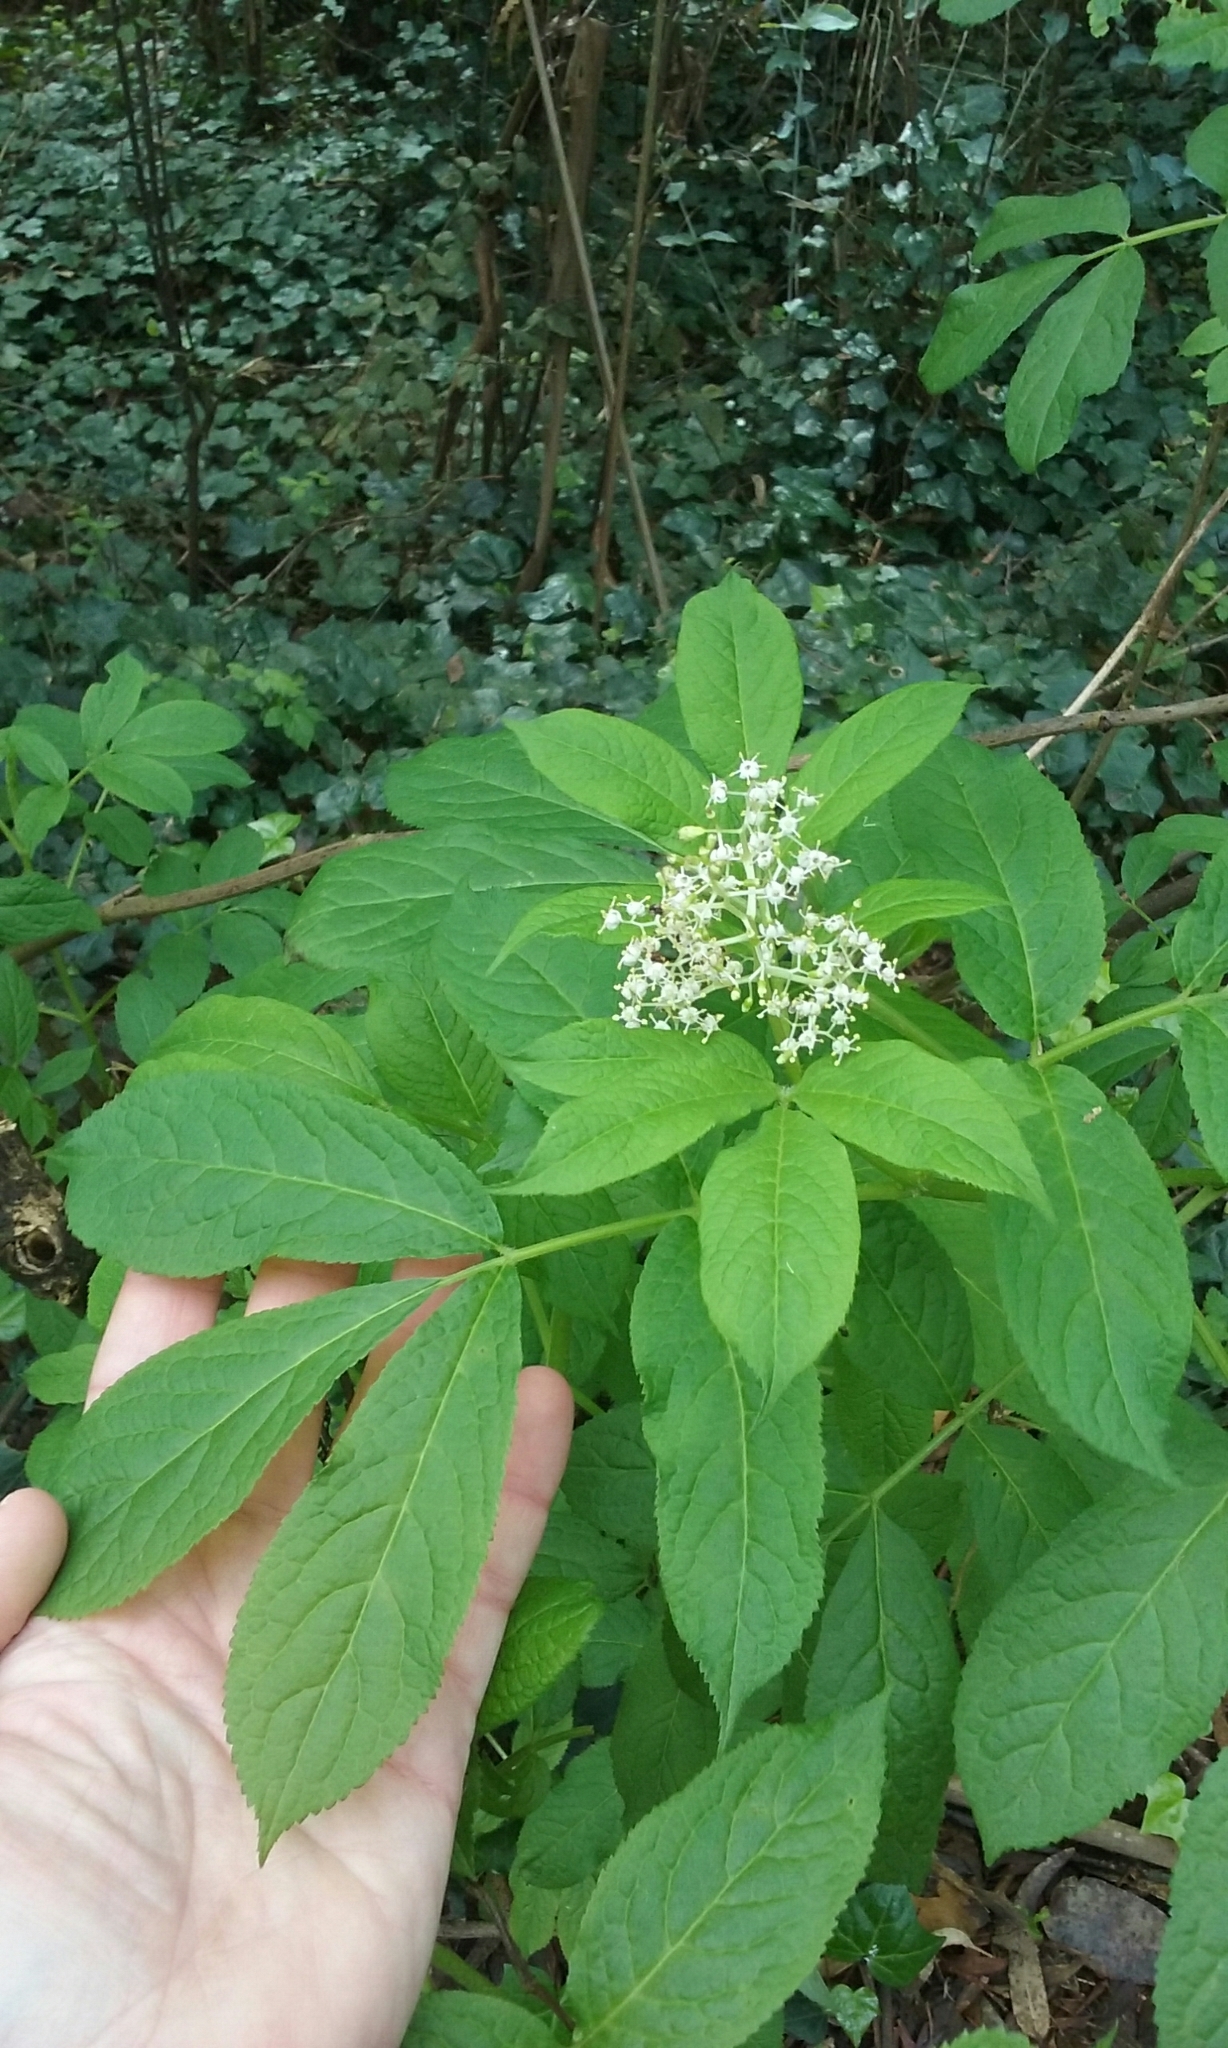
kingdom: Plantae
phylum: Tracheophyta
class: Magnoliopsida
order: Dipsacales
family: Viburnaceae
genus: Sambucus
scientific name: Sambucus racemosa
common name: Red-berried elder
